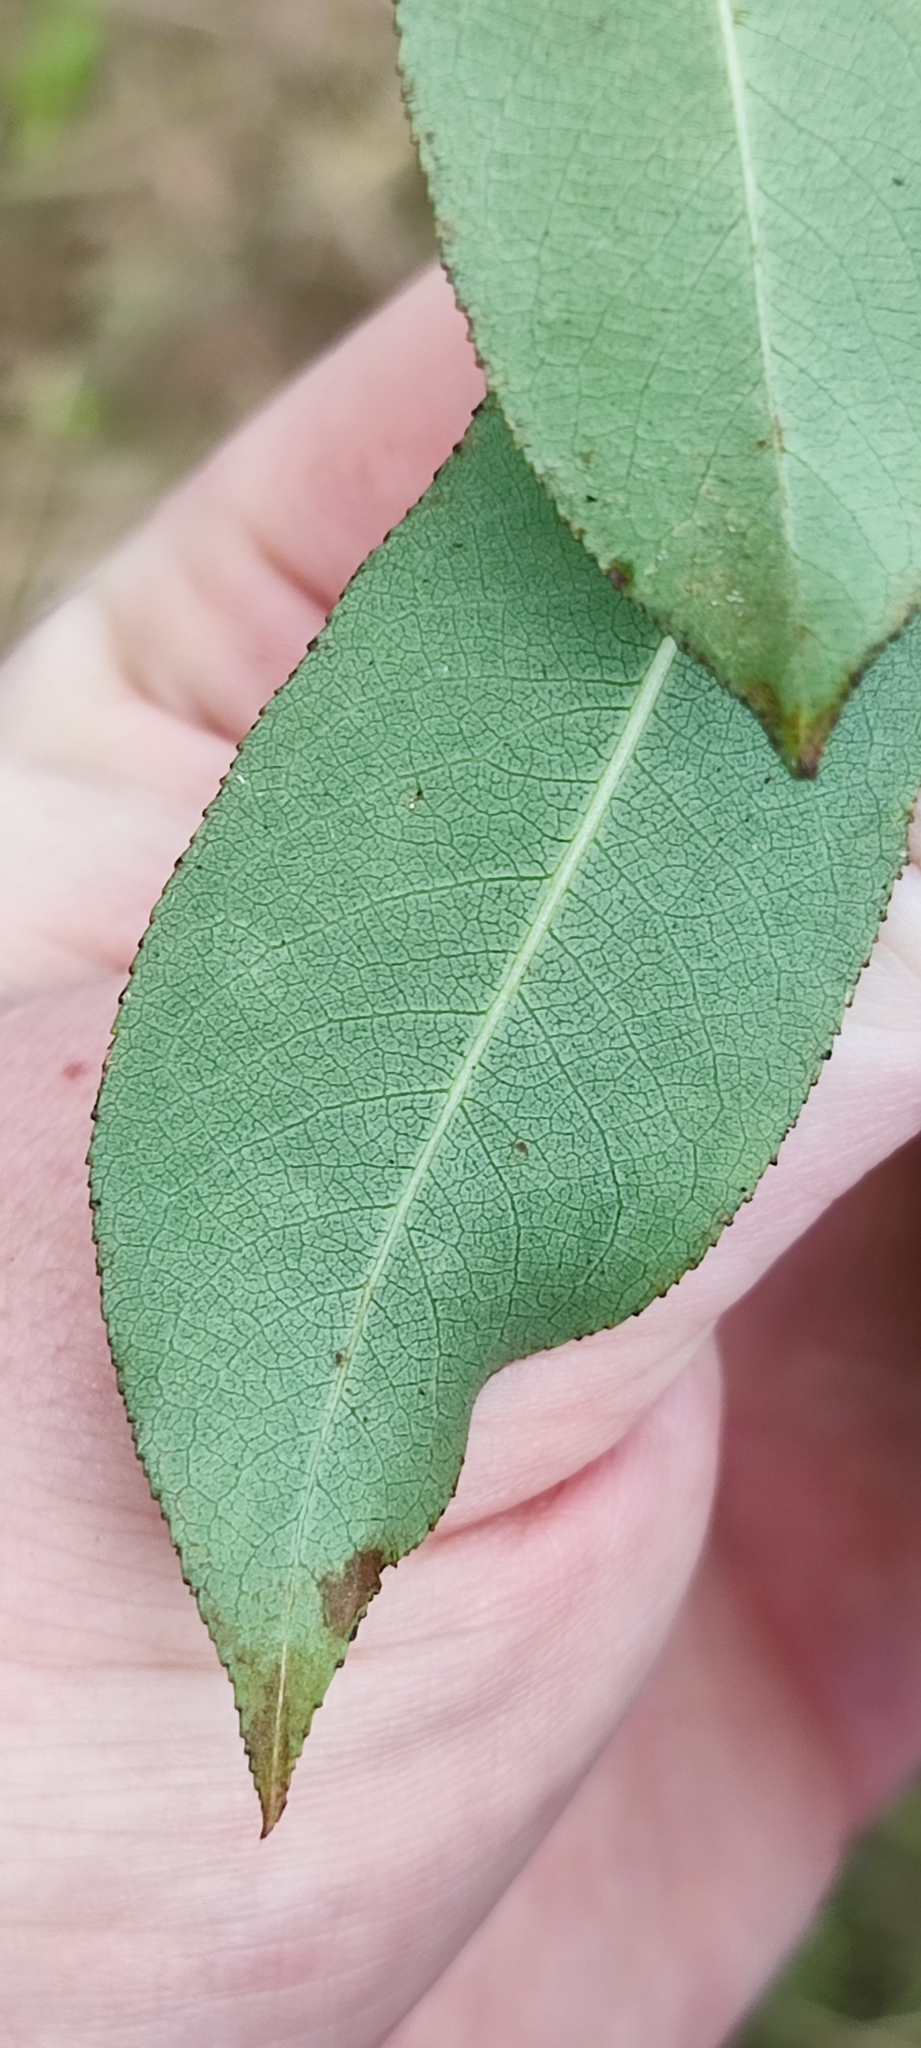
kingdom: Plantae
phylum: Tracheophyta
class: Magnoliopsida
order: Malpighiales
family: Salicaceae
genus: Salix
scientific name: Salix pentandra
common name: Bay willow
